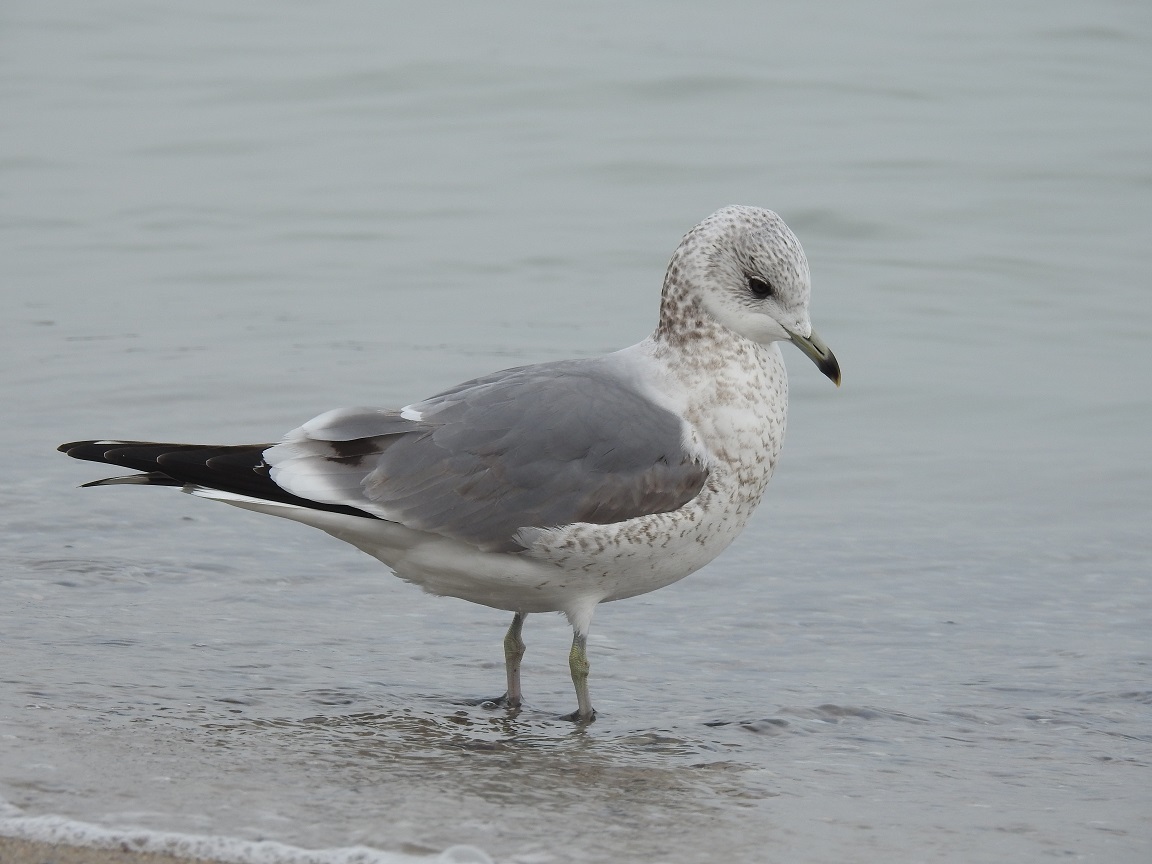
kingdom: Animalia
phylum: Chordata
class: Aves
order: Charadriiformes
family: Laridae
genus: Larus
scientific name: Larus canus
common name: Mew gull
